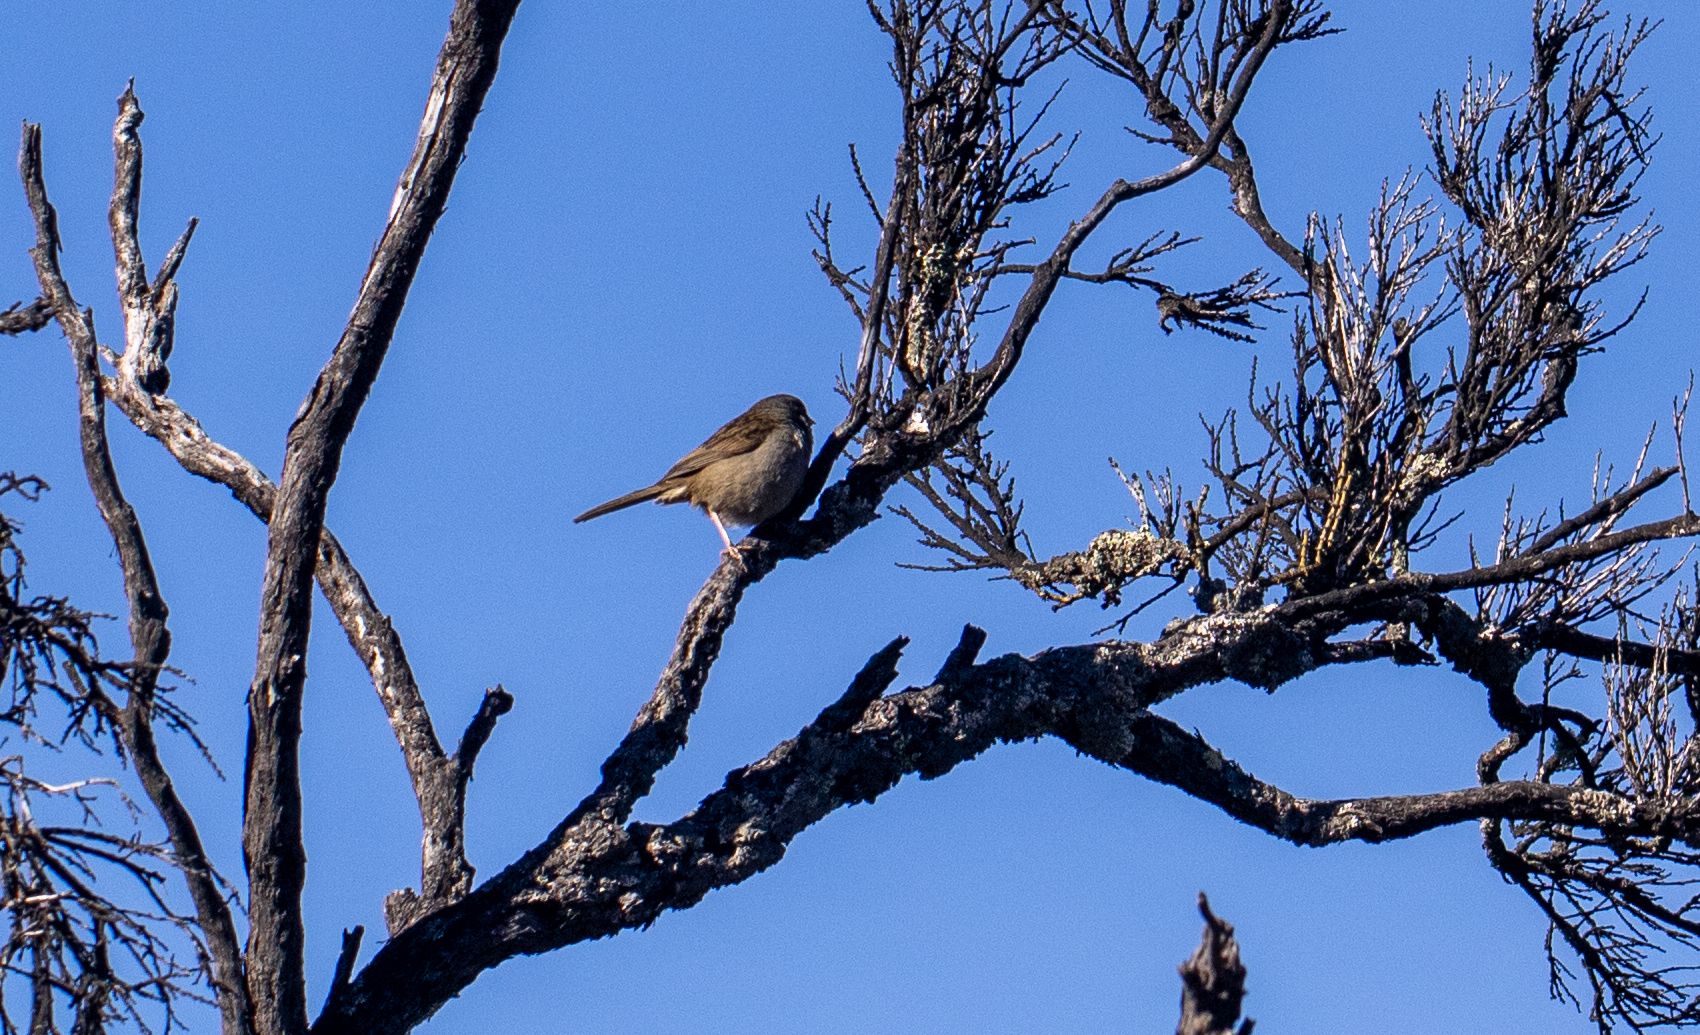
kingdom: Animalia
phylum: Chordata
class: Aves
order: Passeriformes
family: Passerellidae
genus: Junco
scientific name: Junco vulcani
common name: Volcano junco
